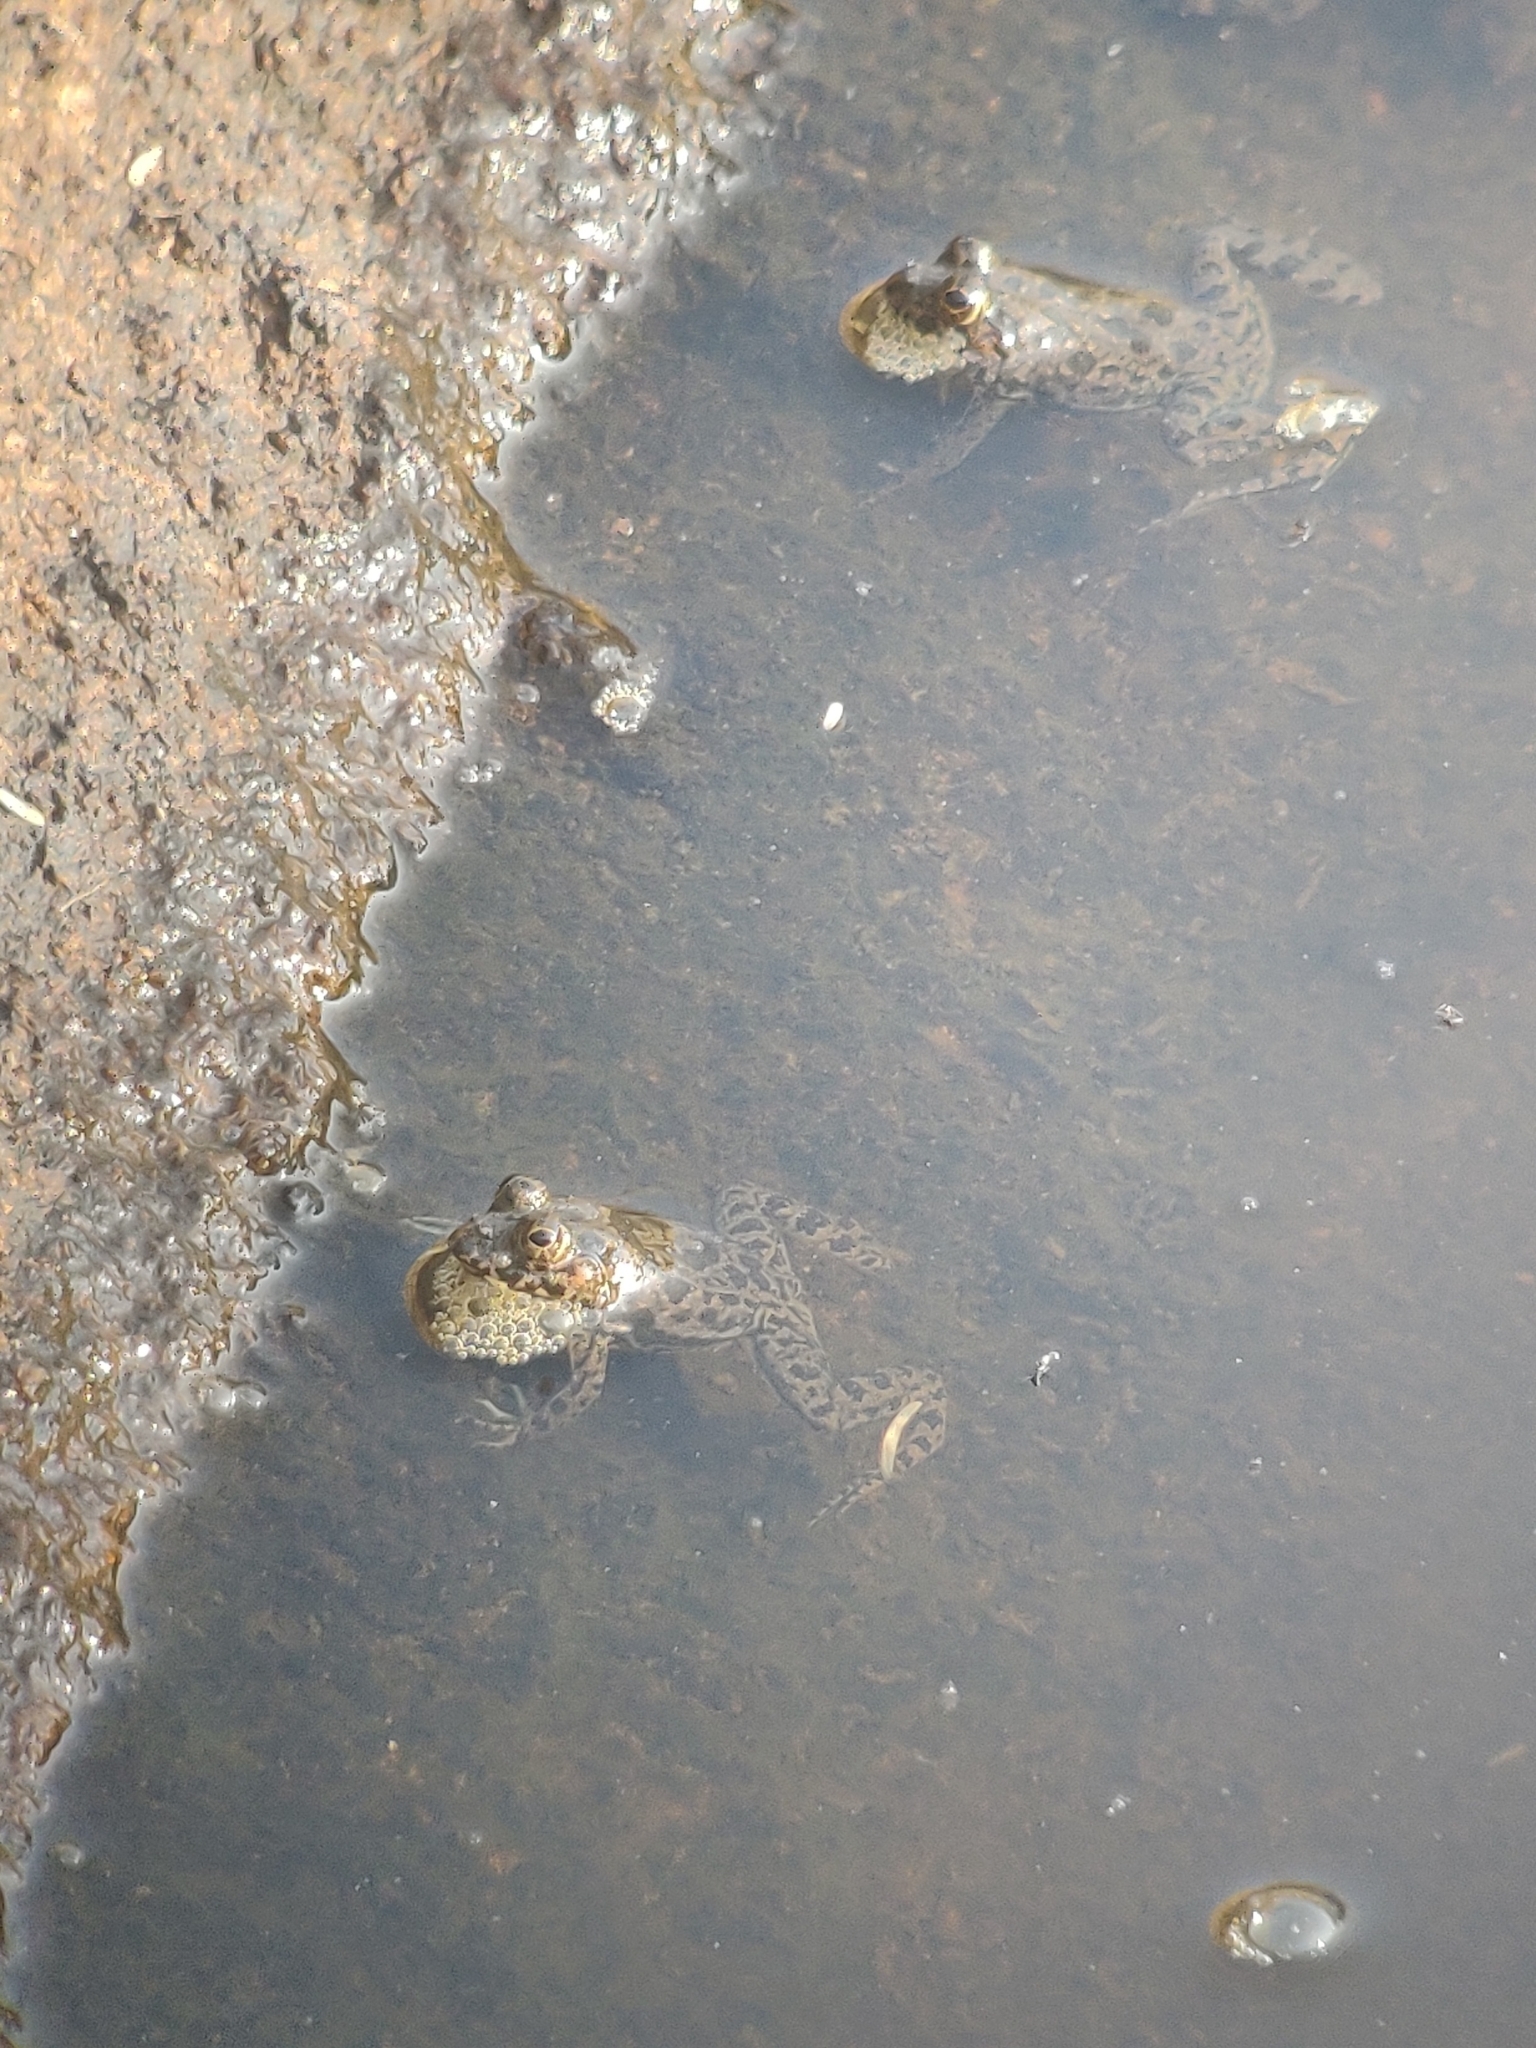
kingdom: Animalia
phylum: Chordata
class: Amphibia
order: Anura
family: Dicroglossidae
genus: Euphlyctis
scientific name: Euphlyctis cyanophlyctis
